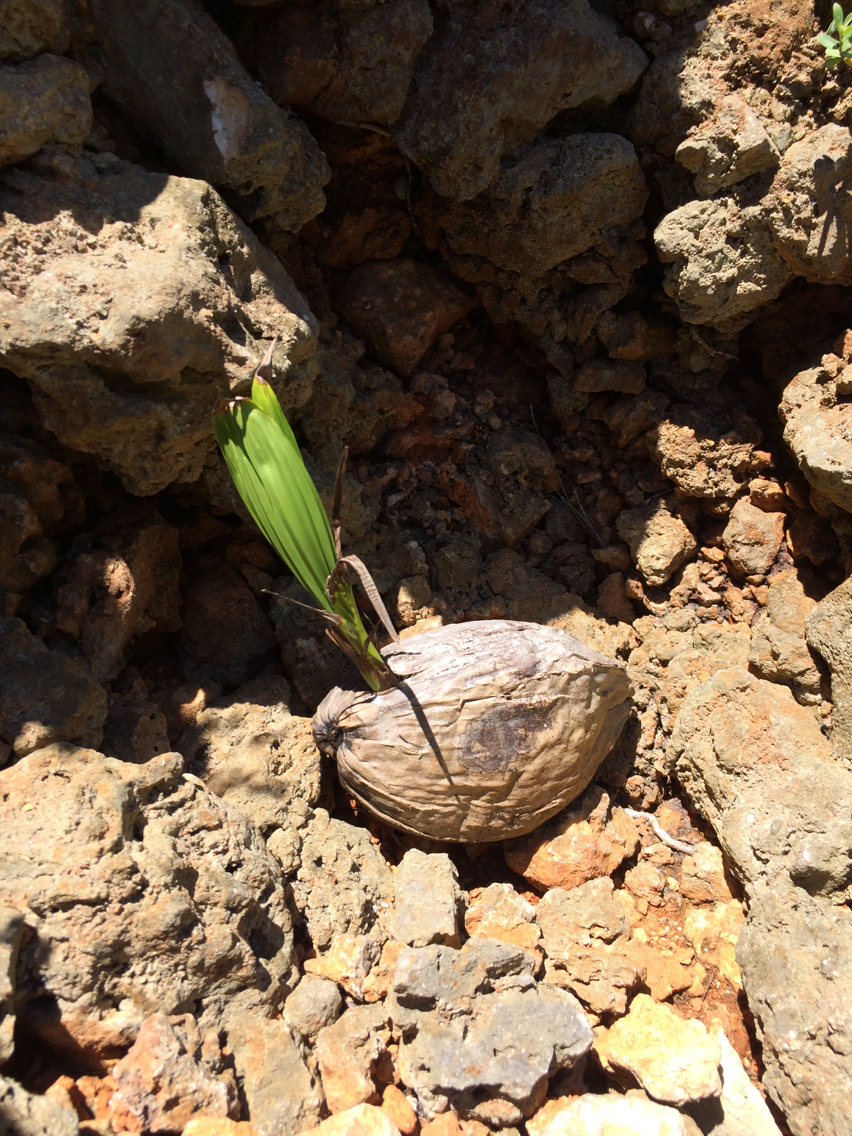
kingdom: Plantae
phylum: Tracheophyta
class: Liliopsida
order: Arecales
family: Arecaceae
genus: Cocos
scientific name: Cocos nucifera
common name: Coconut palm
